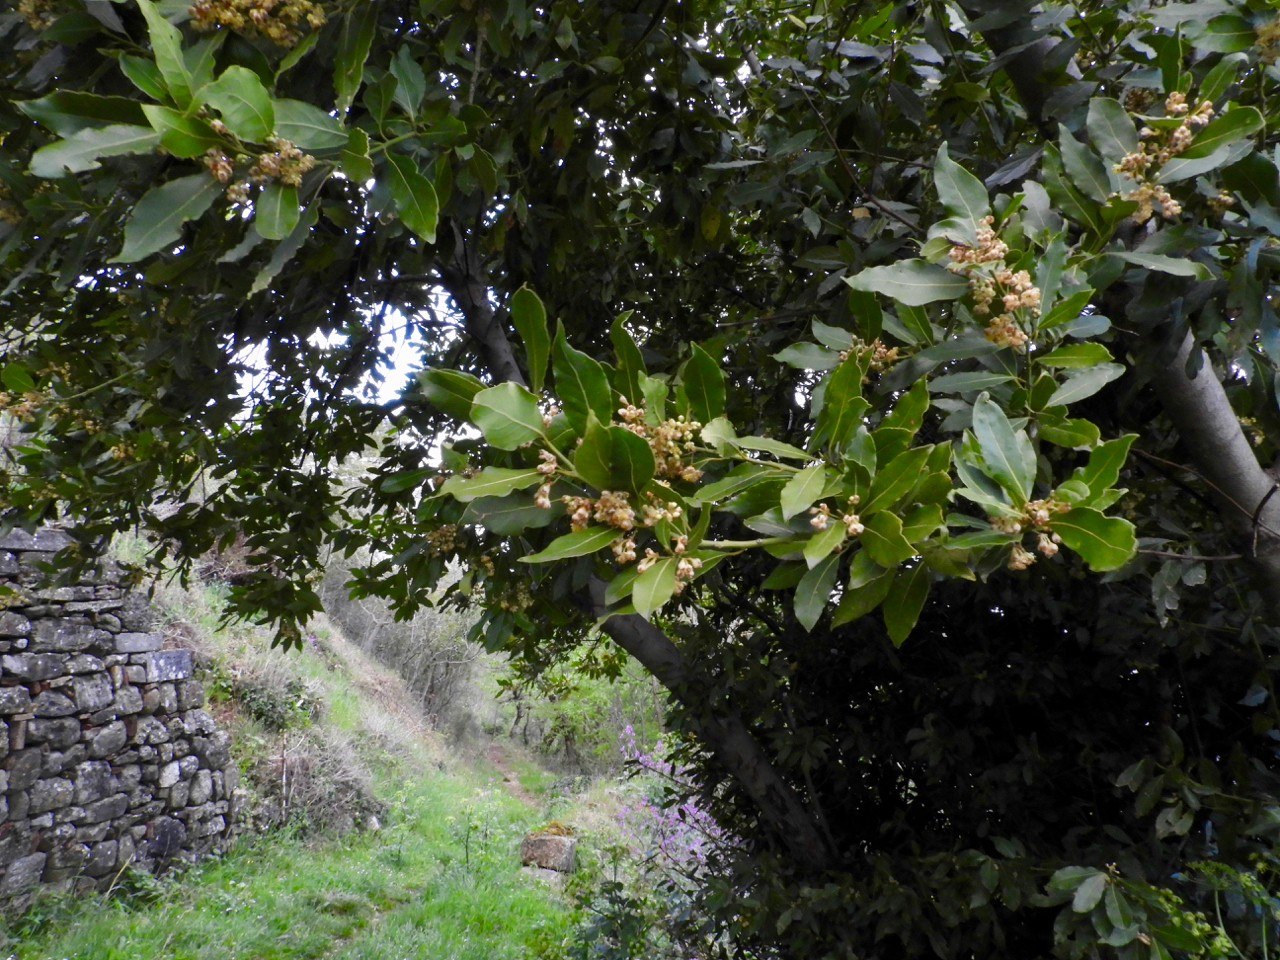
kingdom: Plantae
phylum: Tracheophyta
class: Magnoliopsida
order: Laurales
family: Lauraceae
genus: Laurus
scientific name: Laurus nobilis
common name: Bay
